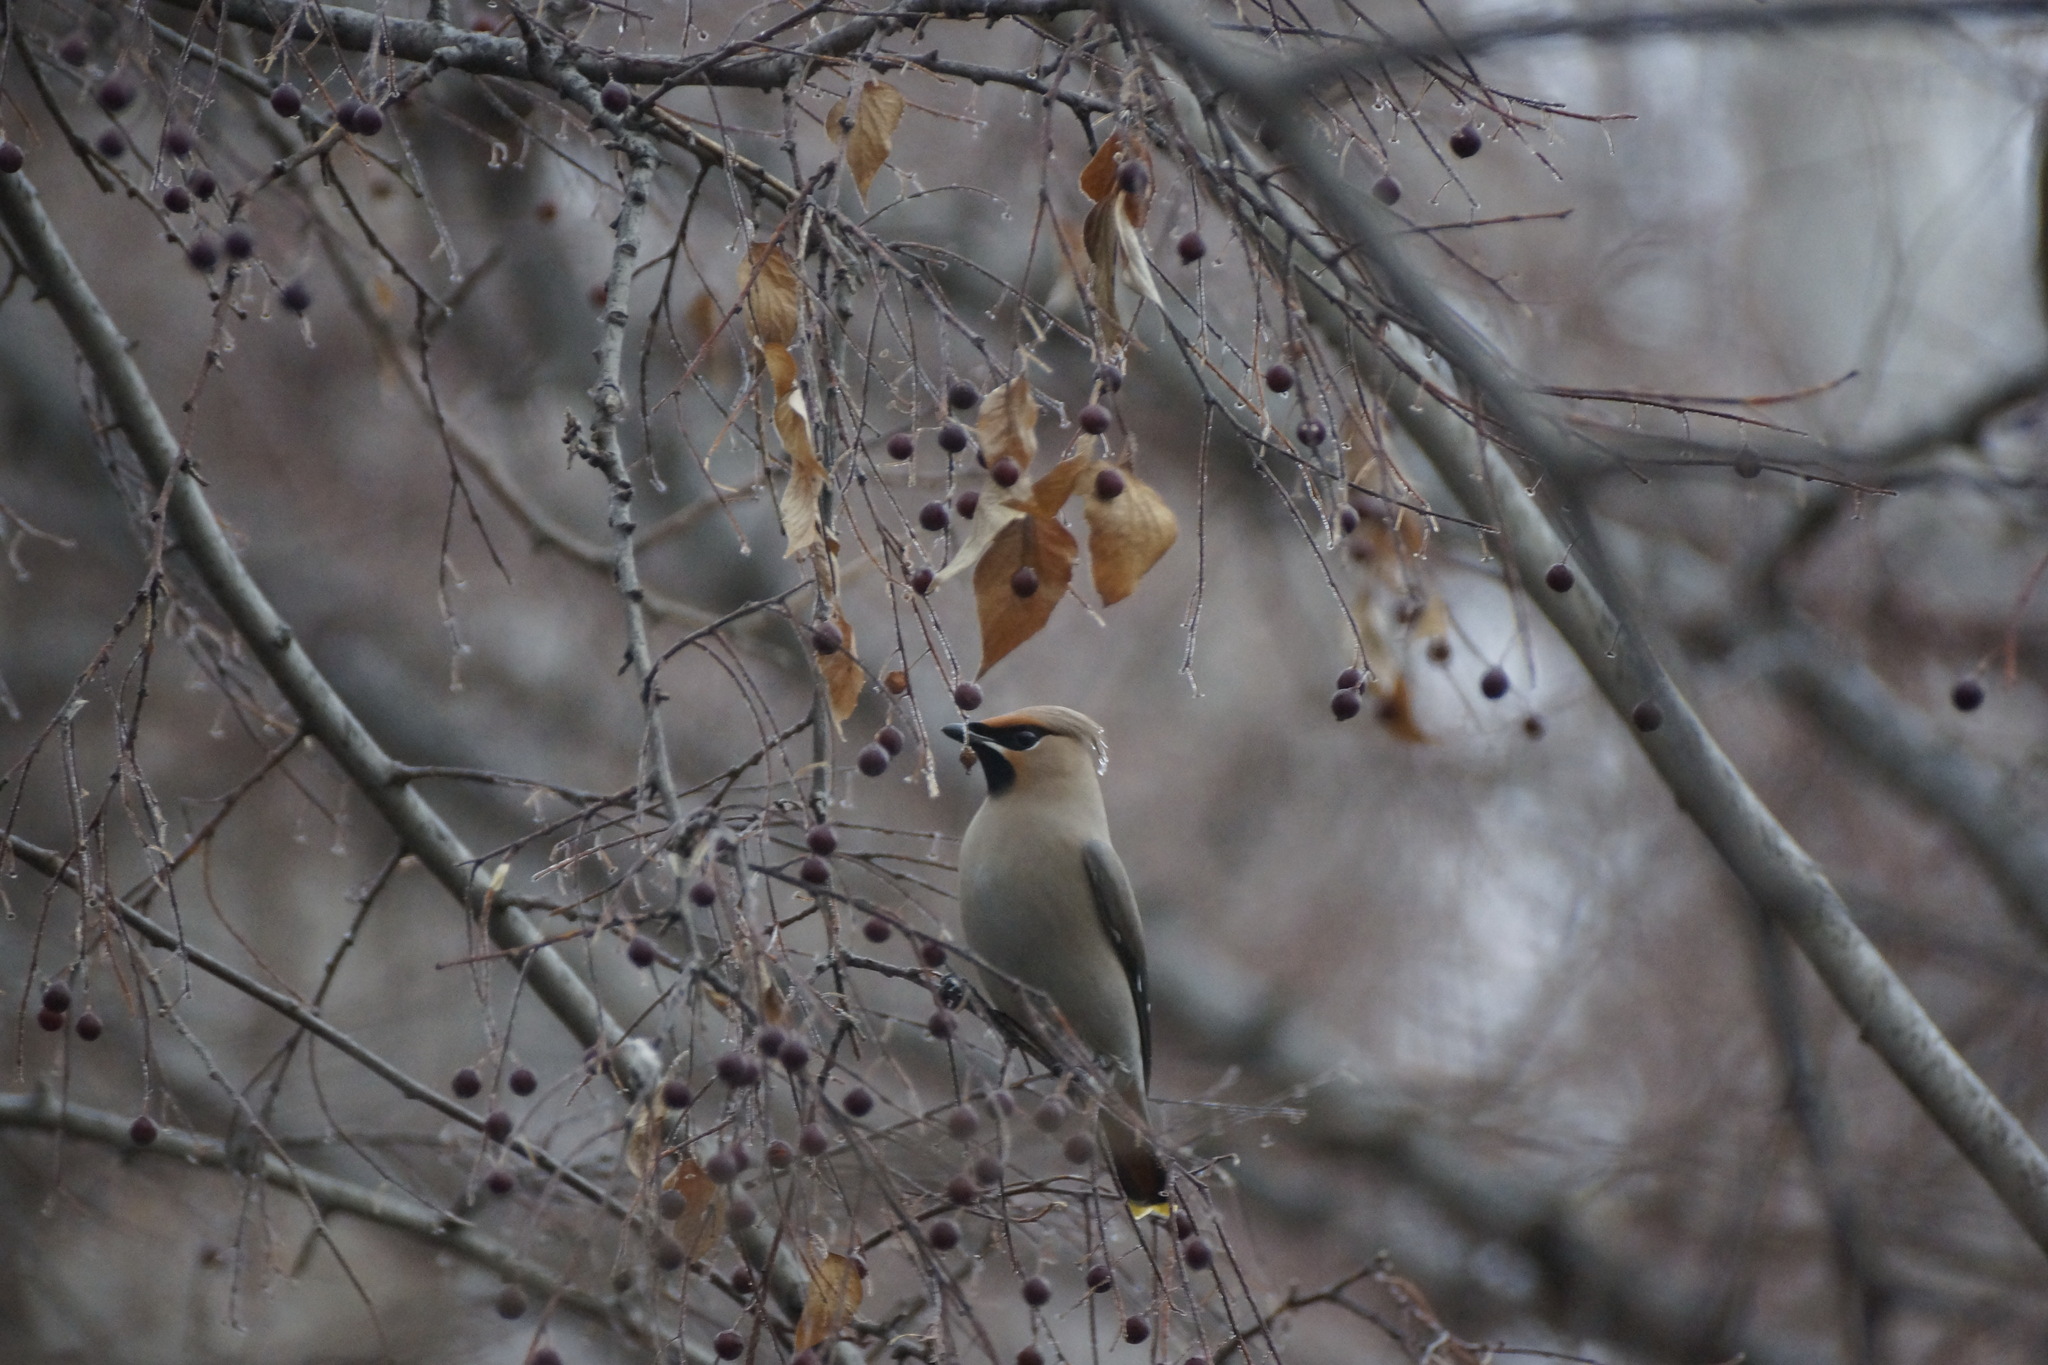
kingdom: Animalia
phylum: Chordata
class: Aves
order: Passeriformes
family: Bombycillidae
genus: Bombycilla
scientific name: Bombycilla garrulus
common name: Bohemian waxwing
